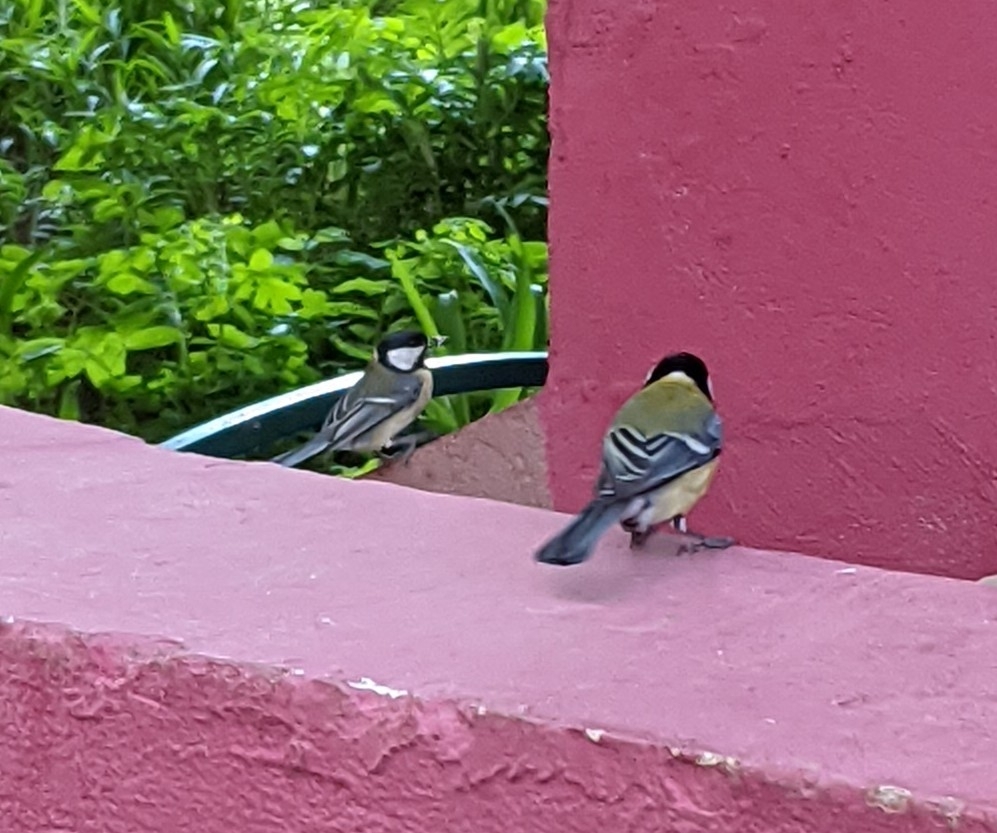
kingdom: Animalia
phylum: Chordata
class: Aves
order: Passeriformes
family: Paridae
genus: Parus
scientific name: Parus major
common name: Great tit
